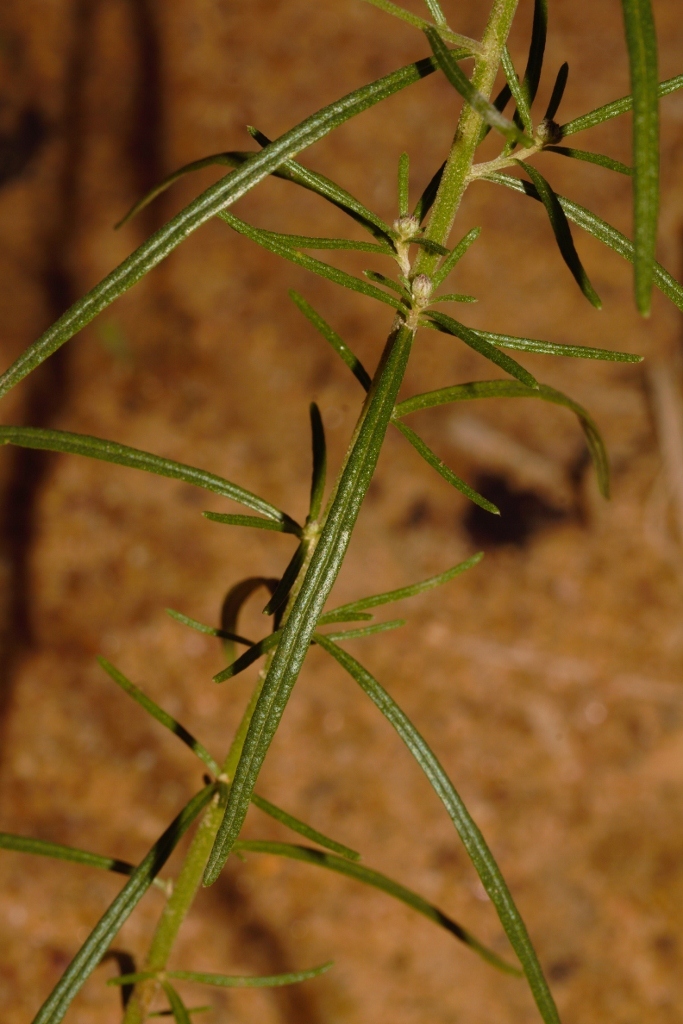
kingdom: Plantae
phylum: Tracheophyta
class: Magnoliopsida
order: Asterales
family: Asteraceae
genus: Crystallopollen
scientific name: Crystallopollen angustifolium
